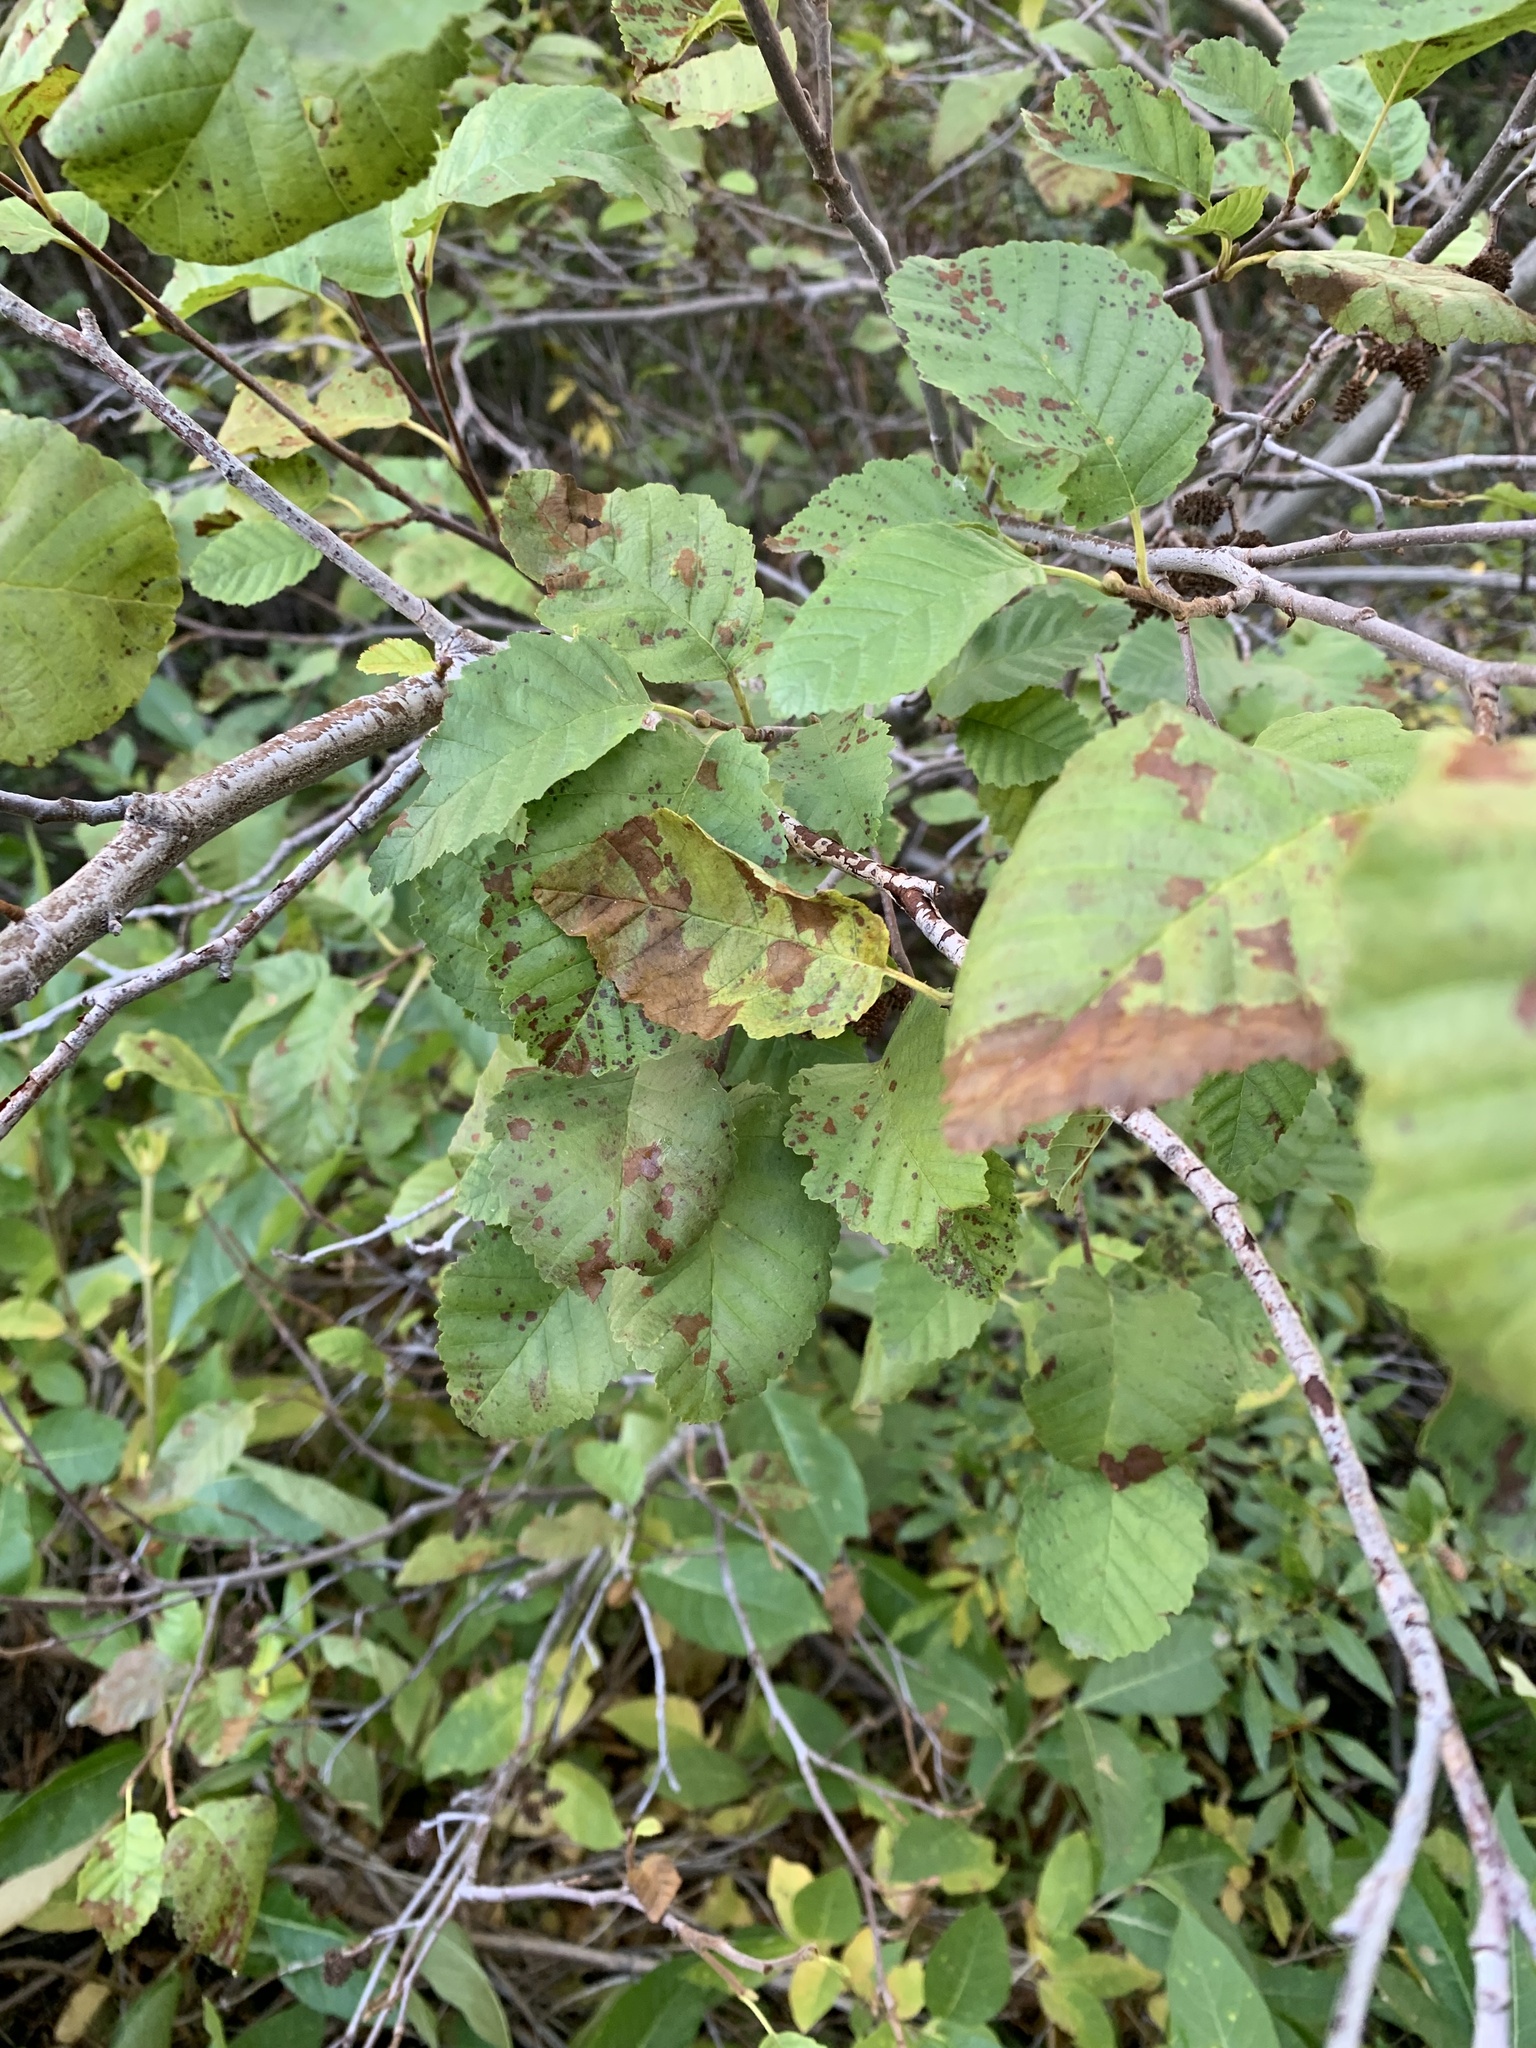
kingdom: Plantae
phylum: Tracheophyta
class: Magnoliopsida
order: Fagales
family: Betulaceae
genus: Alnus
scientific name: Alnus incana
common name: Grey alder
